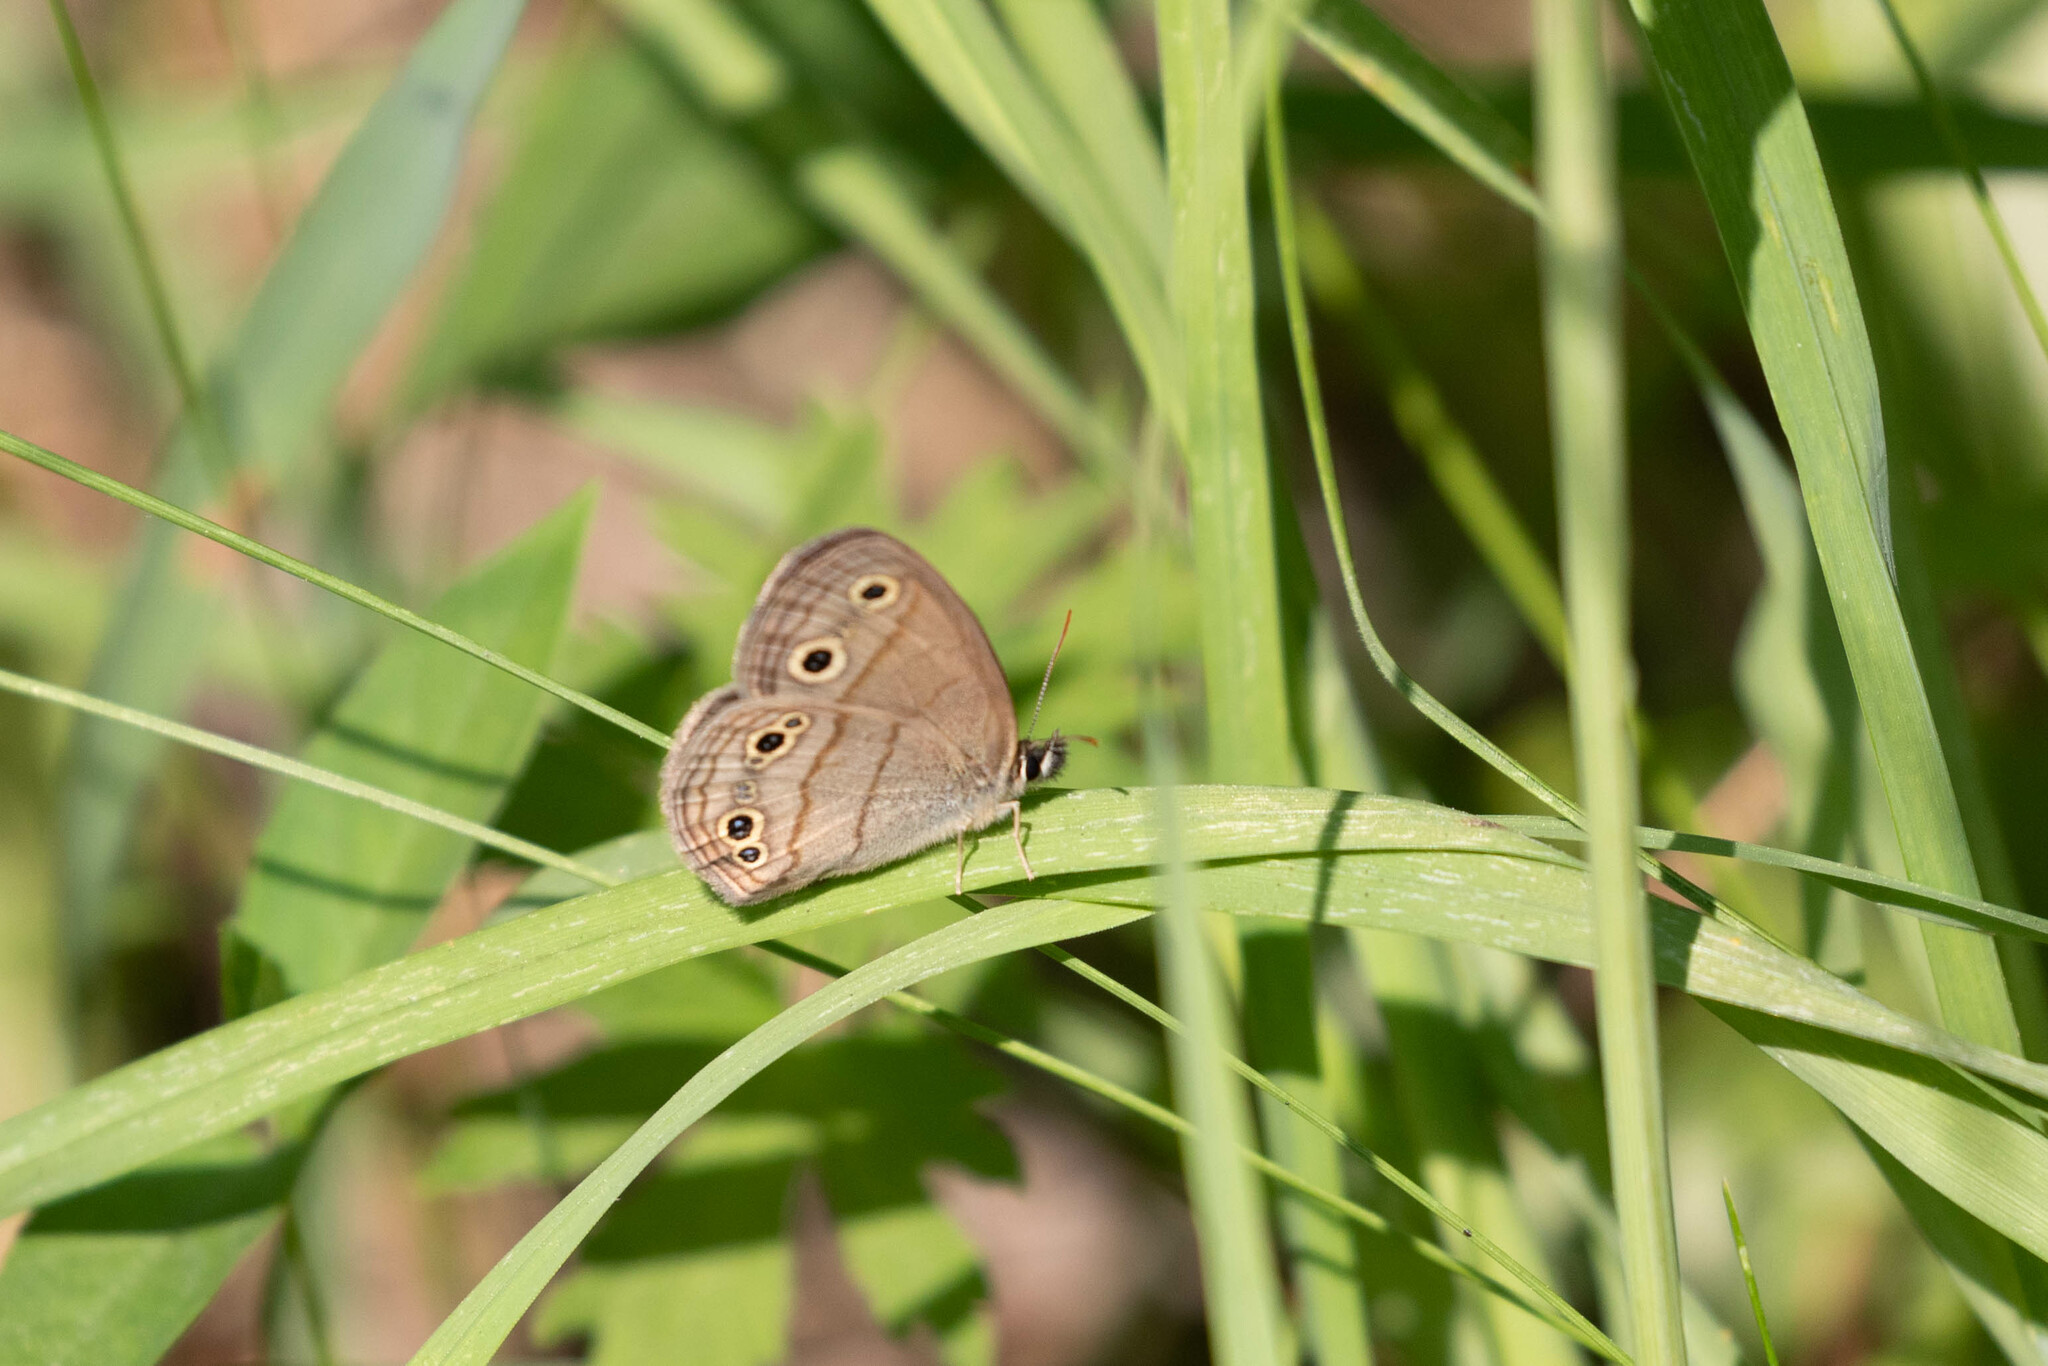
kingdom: Animalia
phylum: Arthropoda
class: Insecta
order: Lepidoptera
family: Nymphalidae
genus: Euptychia
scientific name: Euptychia cymela
